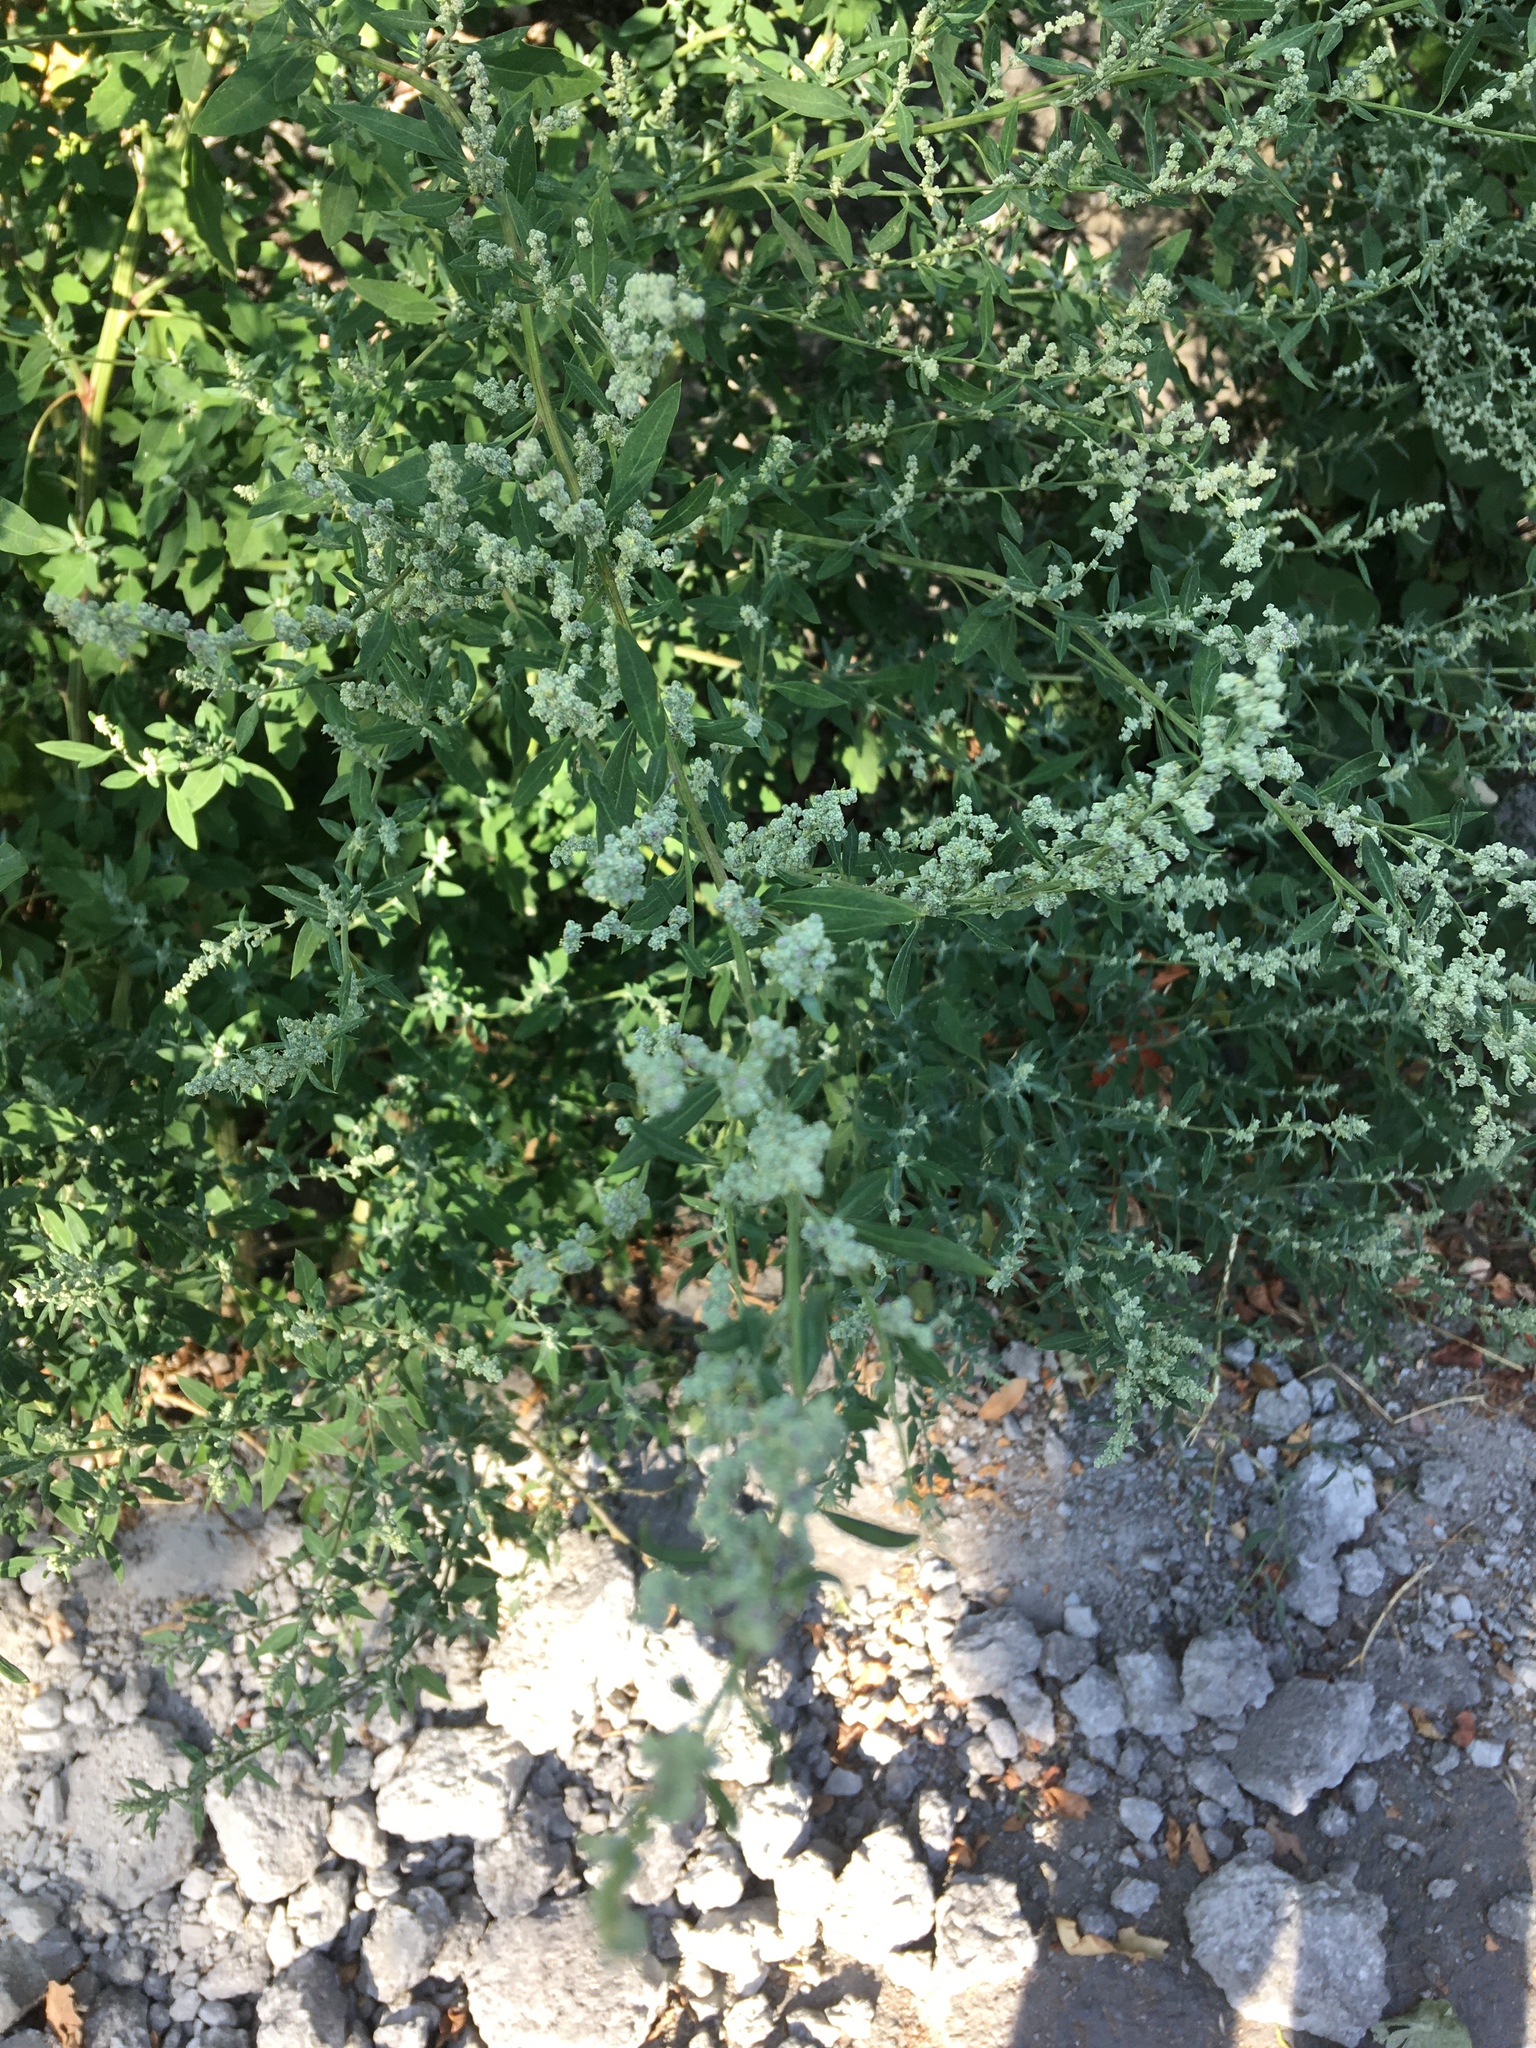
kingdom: Plantae
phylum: Tracheophyta
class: Magnoliopsida
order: Caryophyllales
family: Amaranthaceae
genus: Chenopodium
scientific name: Chenopodium album
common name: Fat-hen
